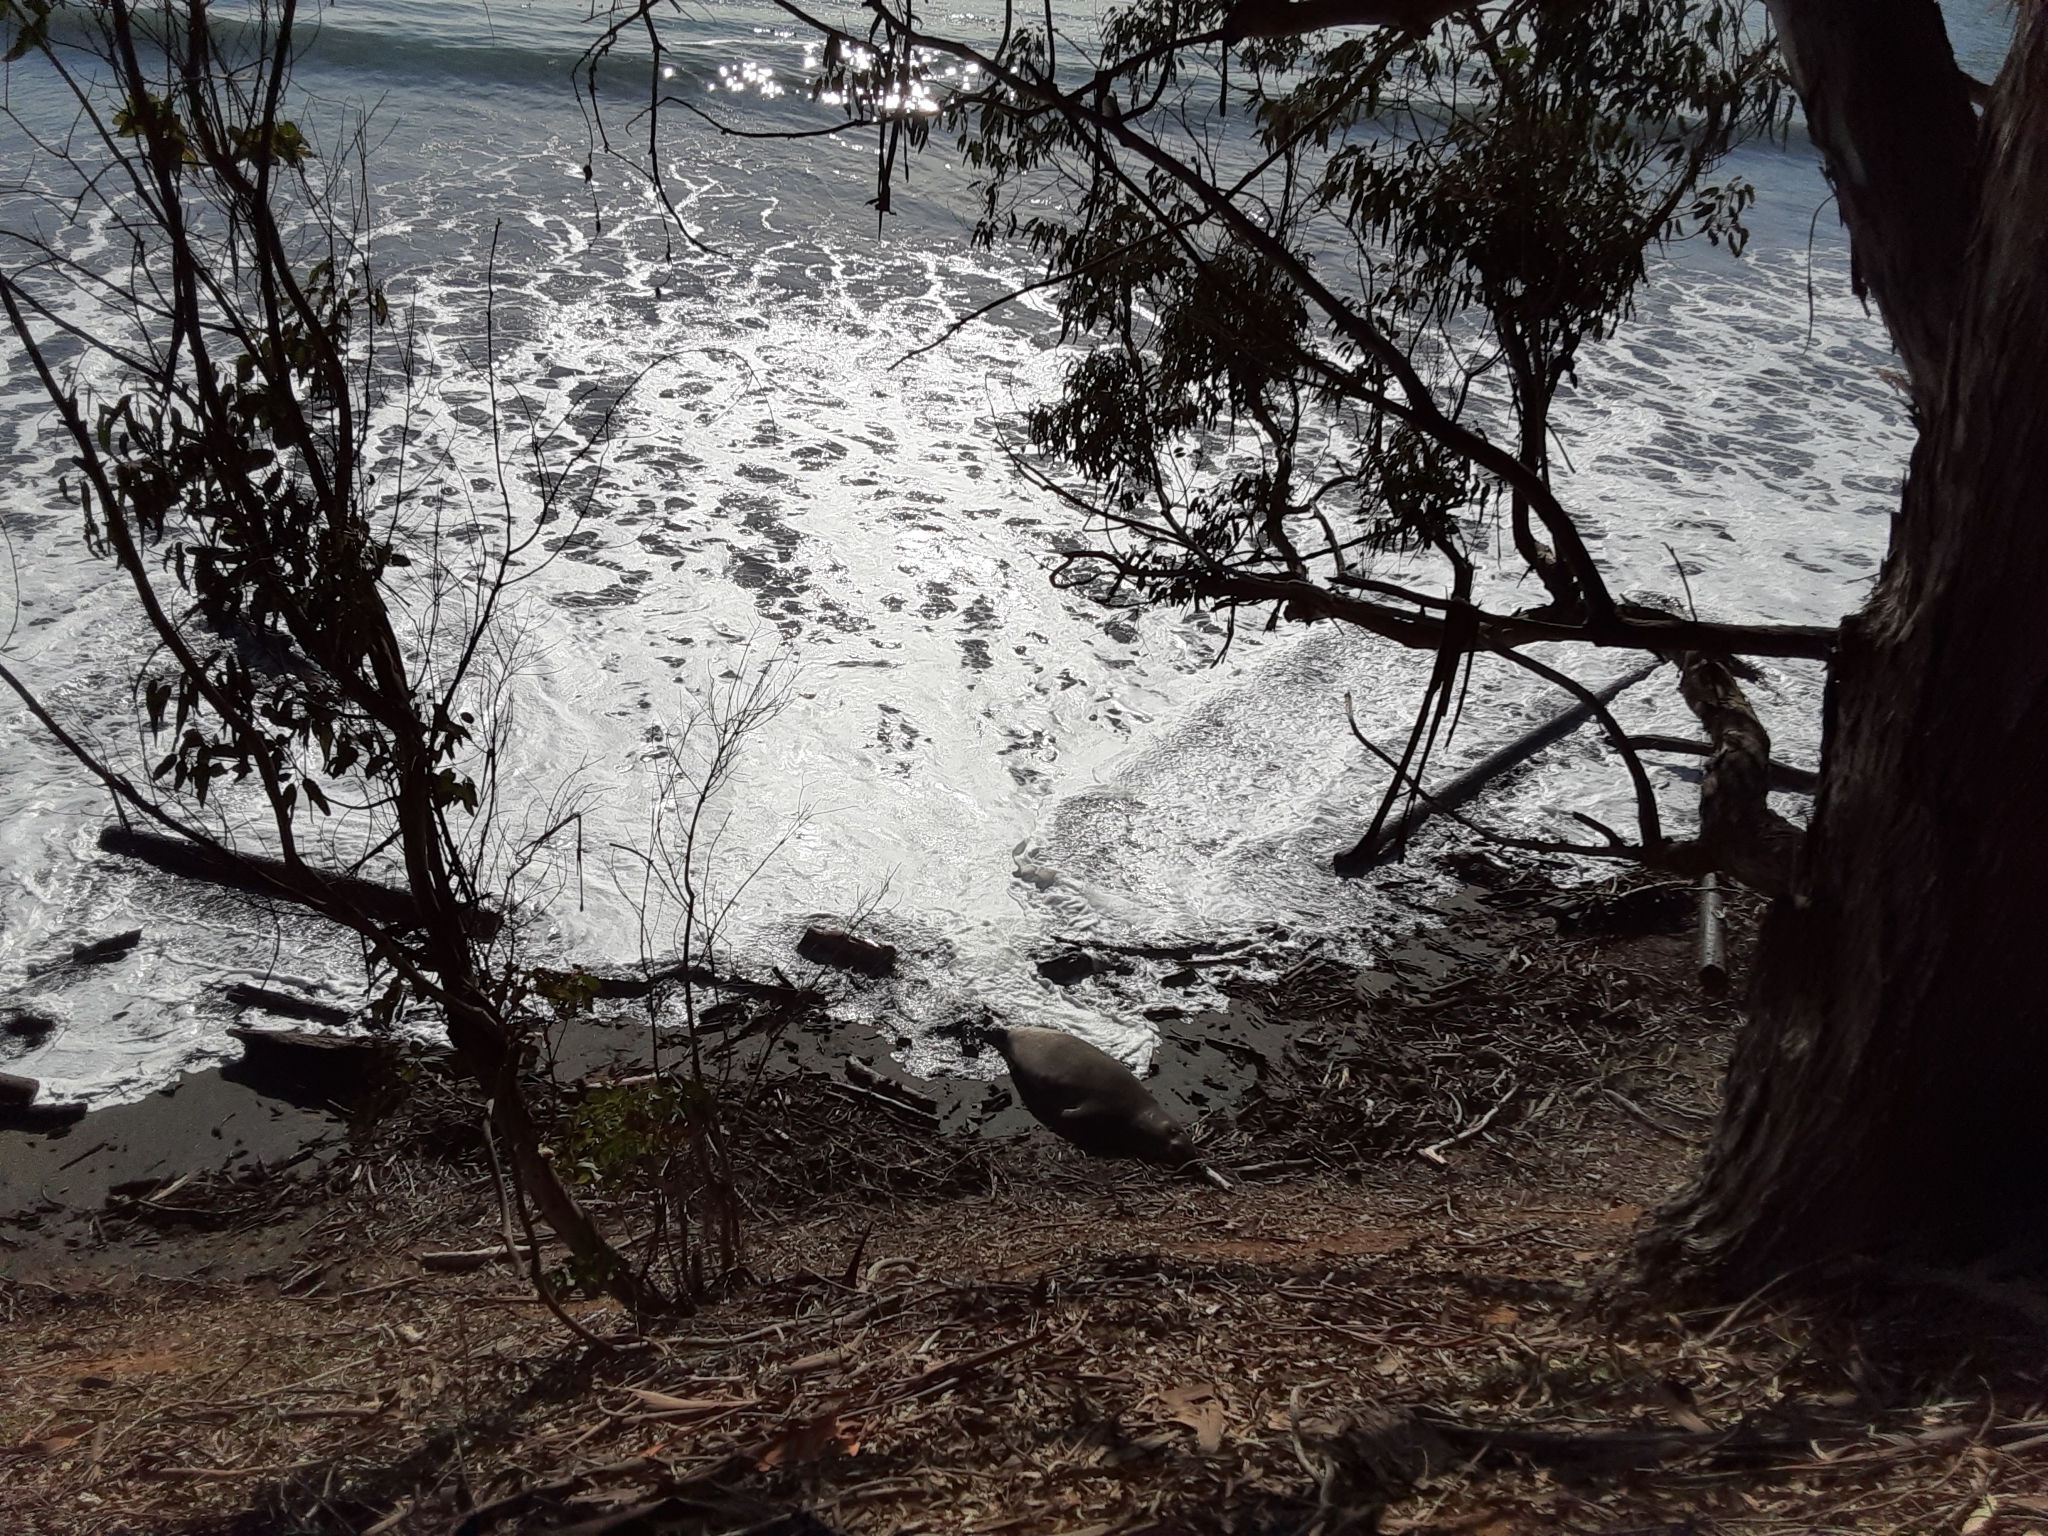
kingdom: Animalia
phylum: Chordata
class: Mammalia
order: Carnivora
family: Phocidae
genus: Mirounga
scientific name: Mirounga angustirostris
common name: Northern elephant seal
